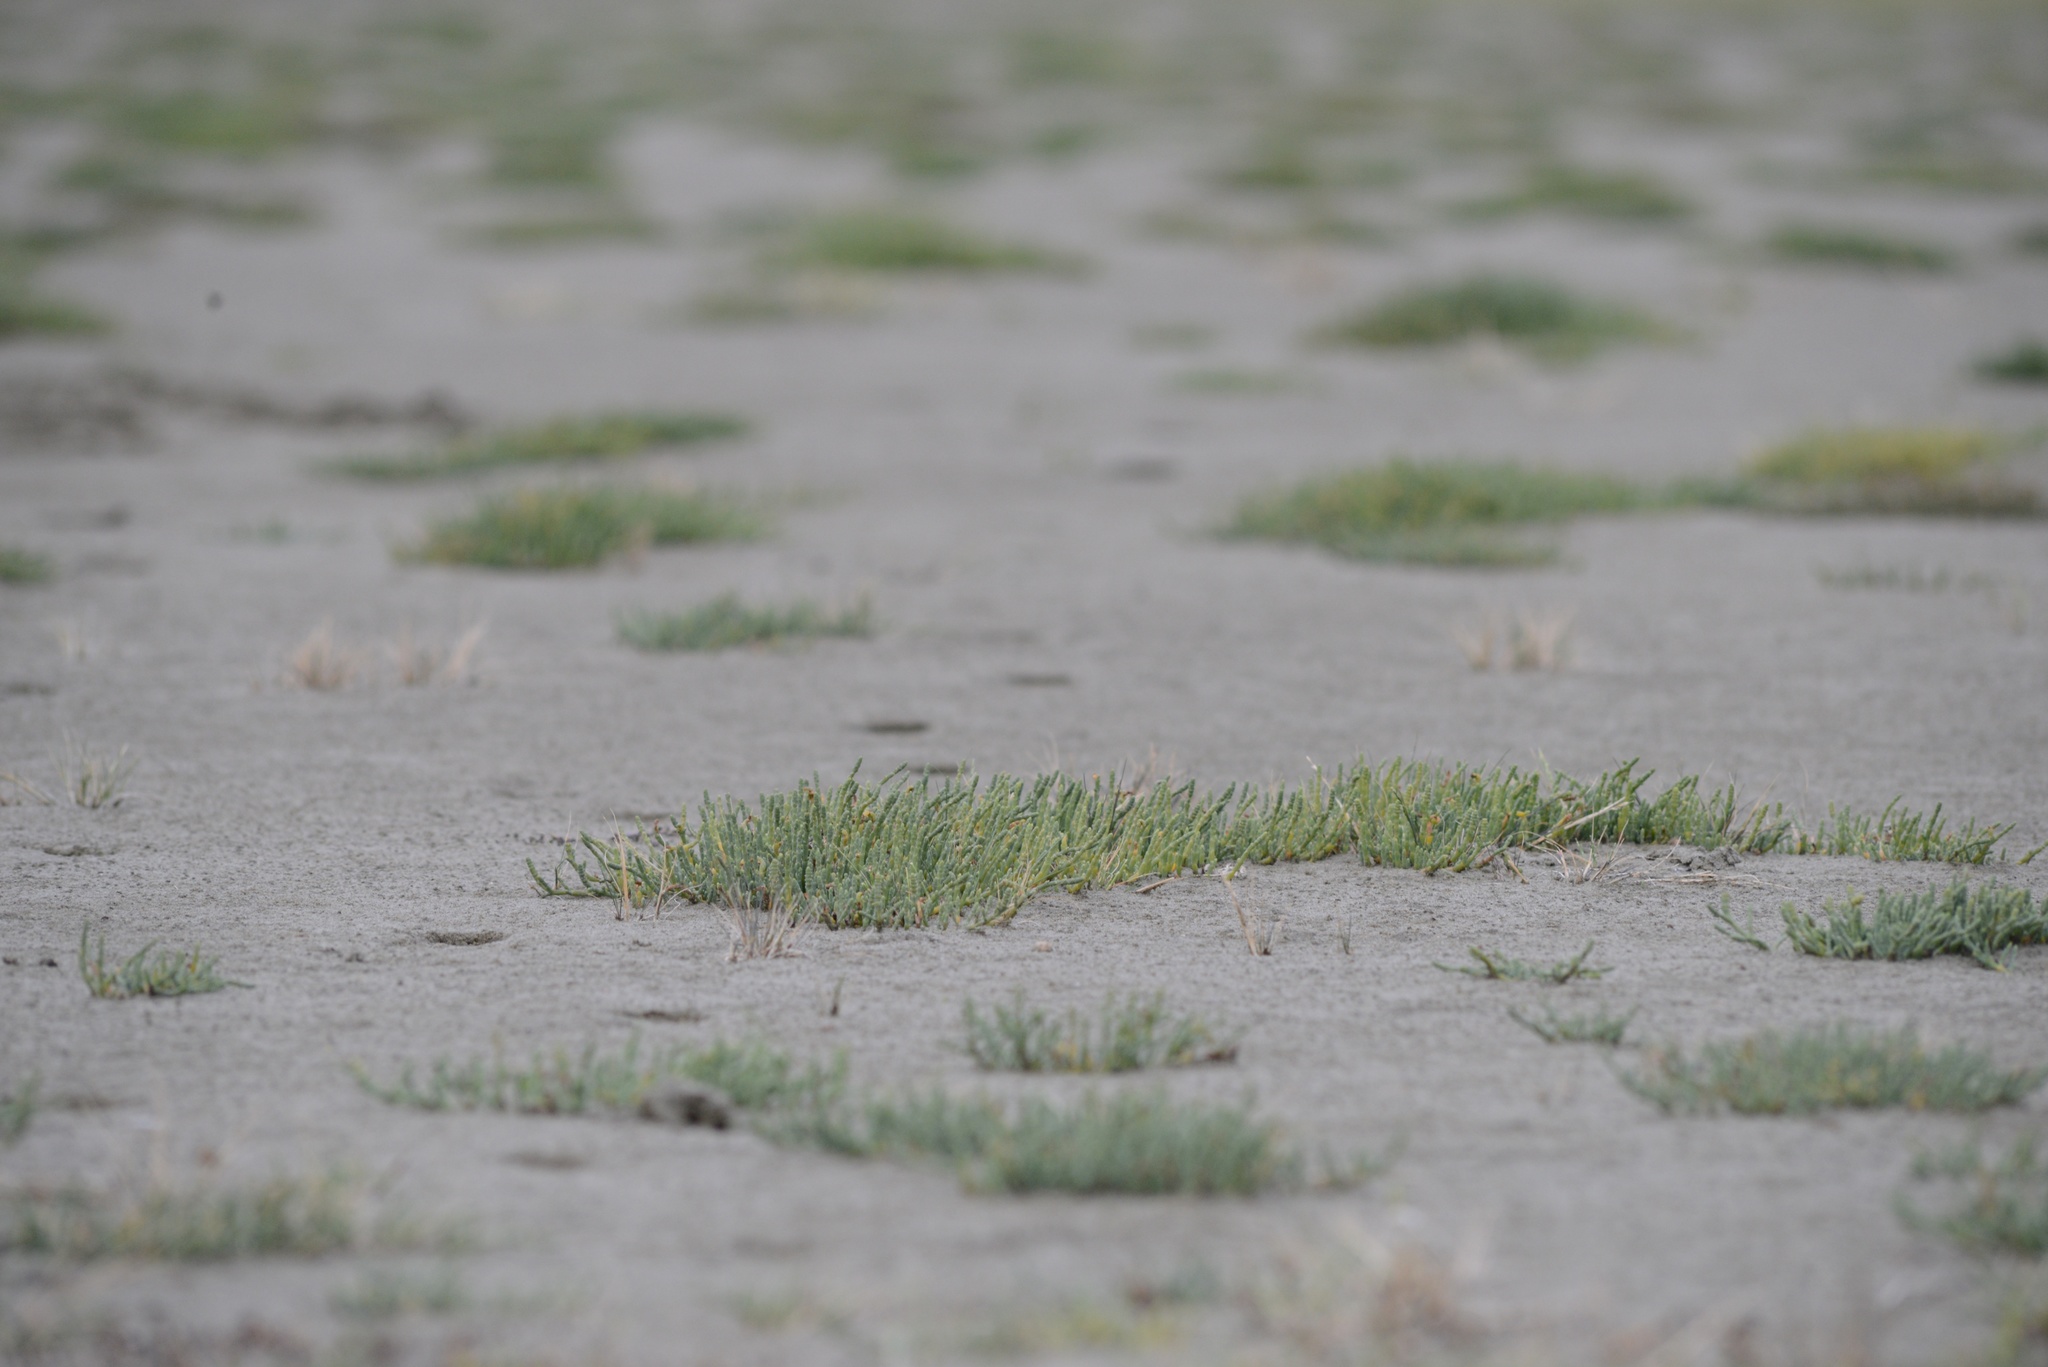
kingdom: Plantae
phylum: Tracheophyta
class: Magnoliopsida
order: Caryophyllales
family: Amaranthaceae
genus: Salicornia
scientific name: Salicornia quinqueflora
